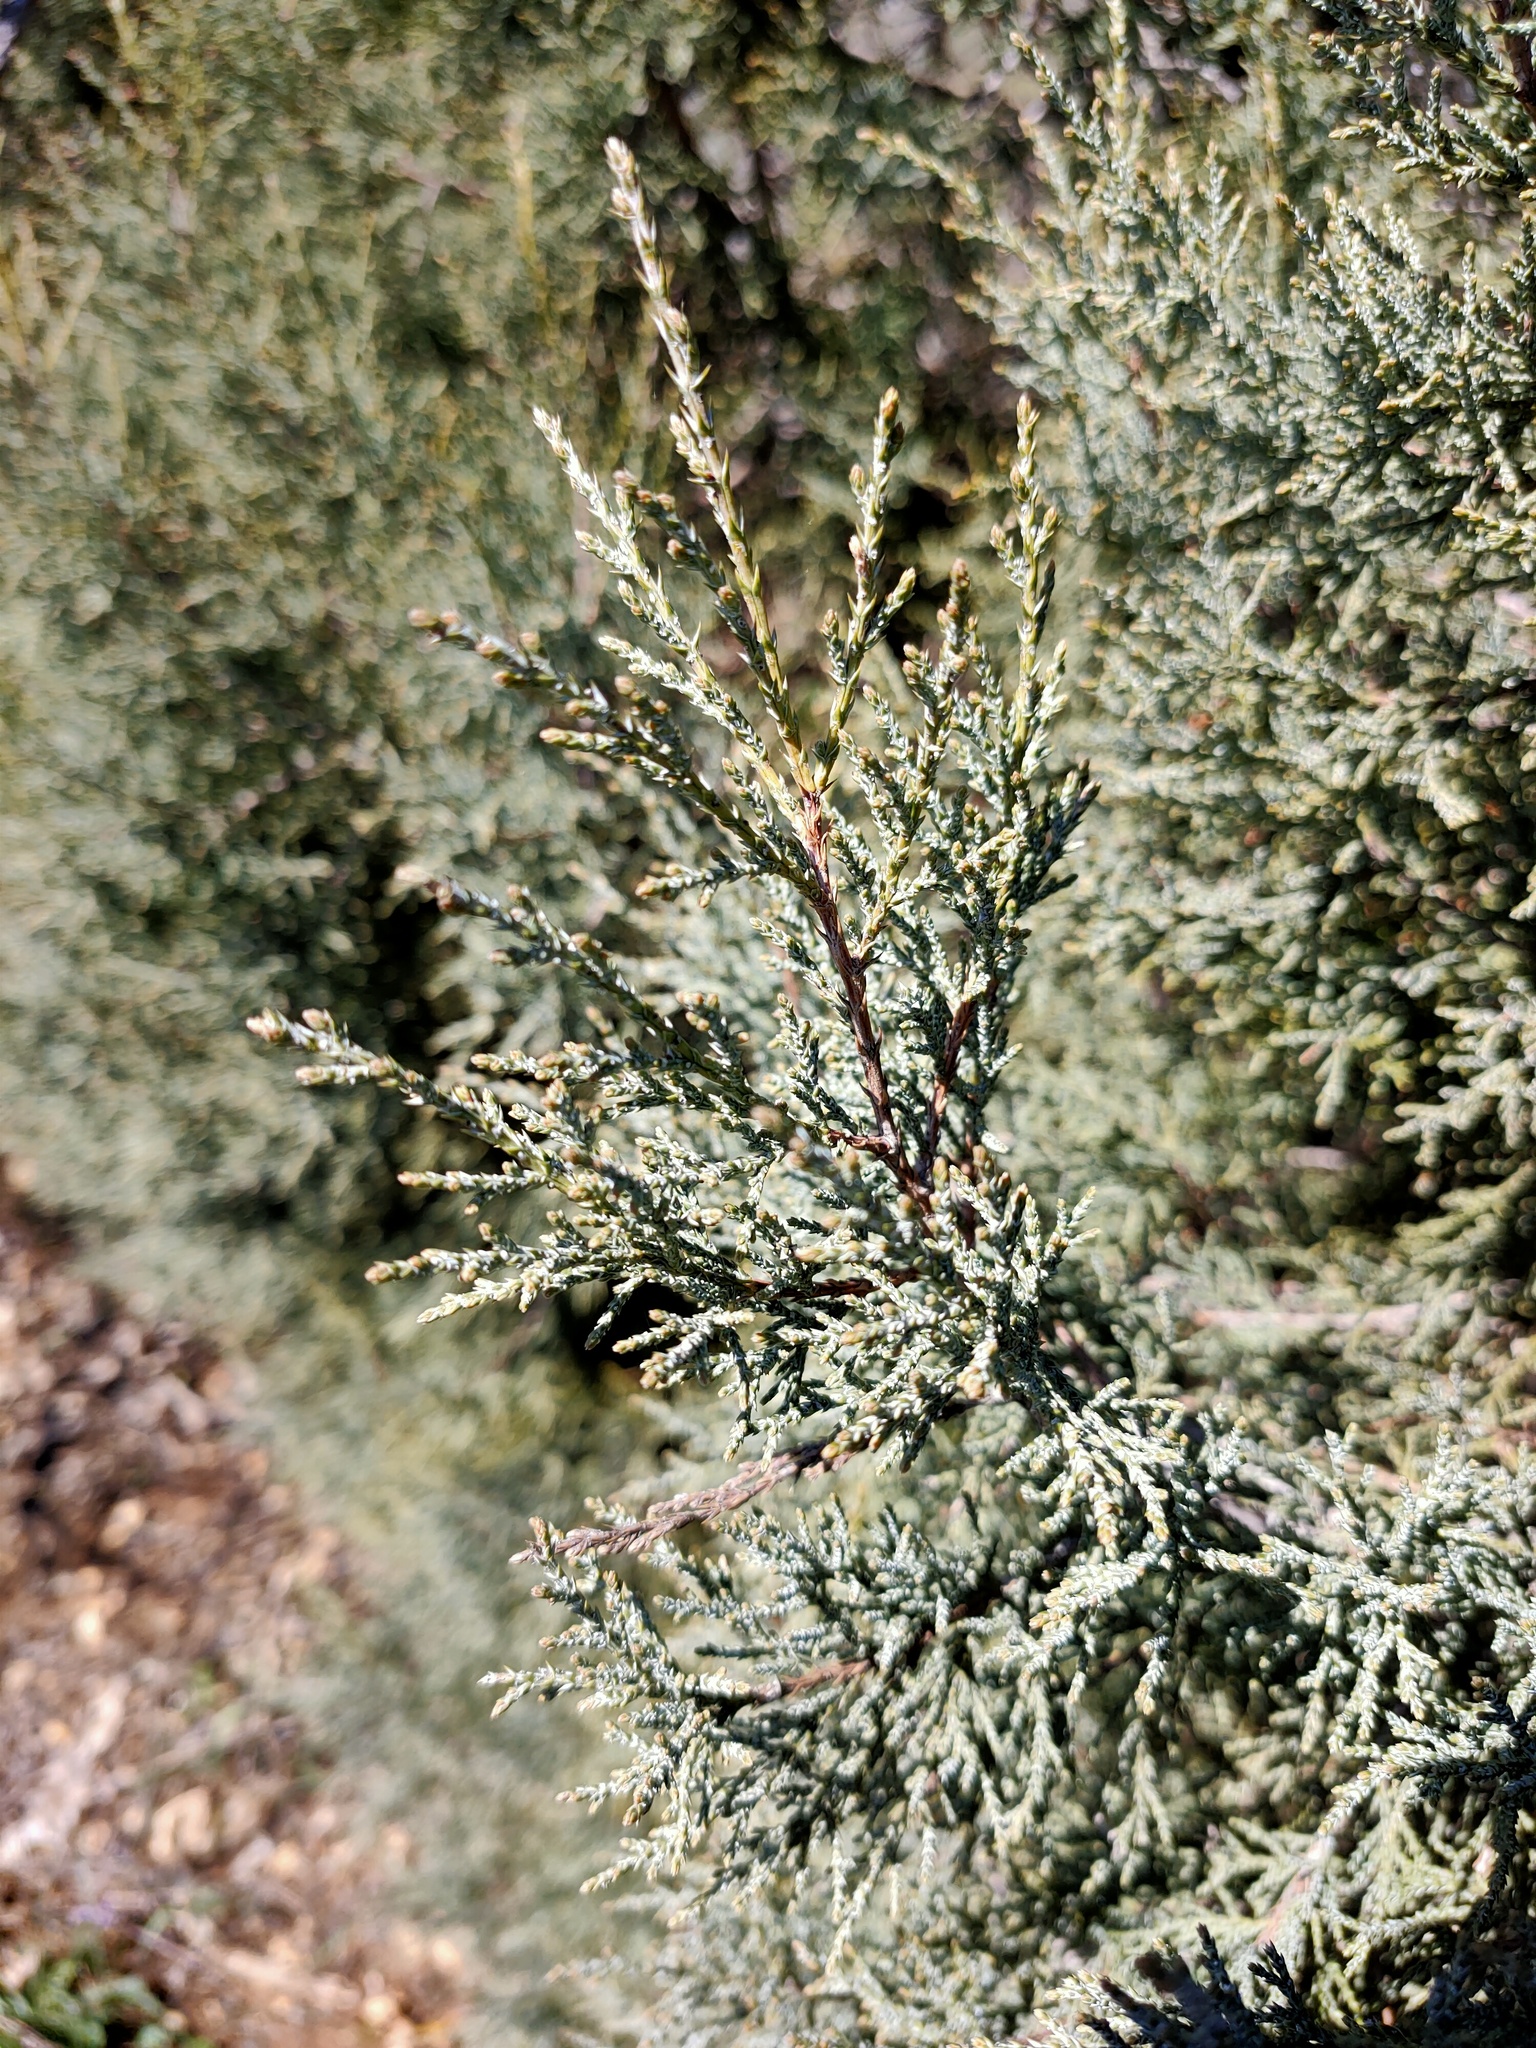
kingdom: Plantae
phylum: Tracheophyta
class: Pinopsida
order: Pinales
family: Cupressaceae
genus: Juniperus
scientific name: Juniperus excelsa
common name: Crimean juniper
